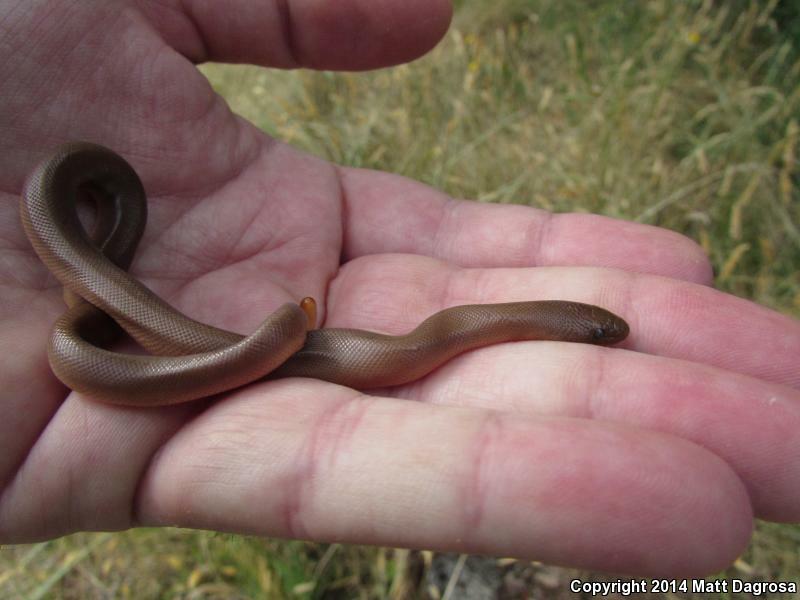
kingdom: Animalia
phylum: Chordata
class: Squamata
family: Boidae
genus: Charina
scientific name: Charina bottae
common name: Northern rubber boa
